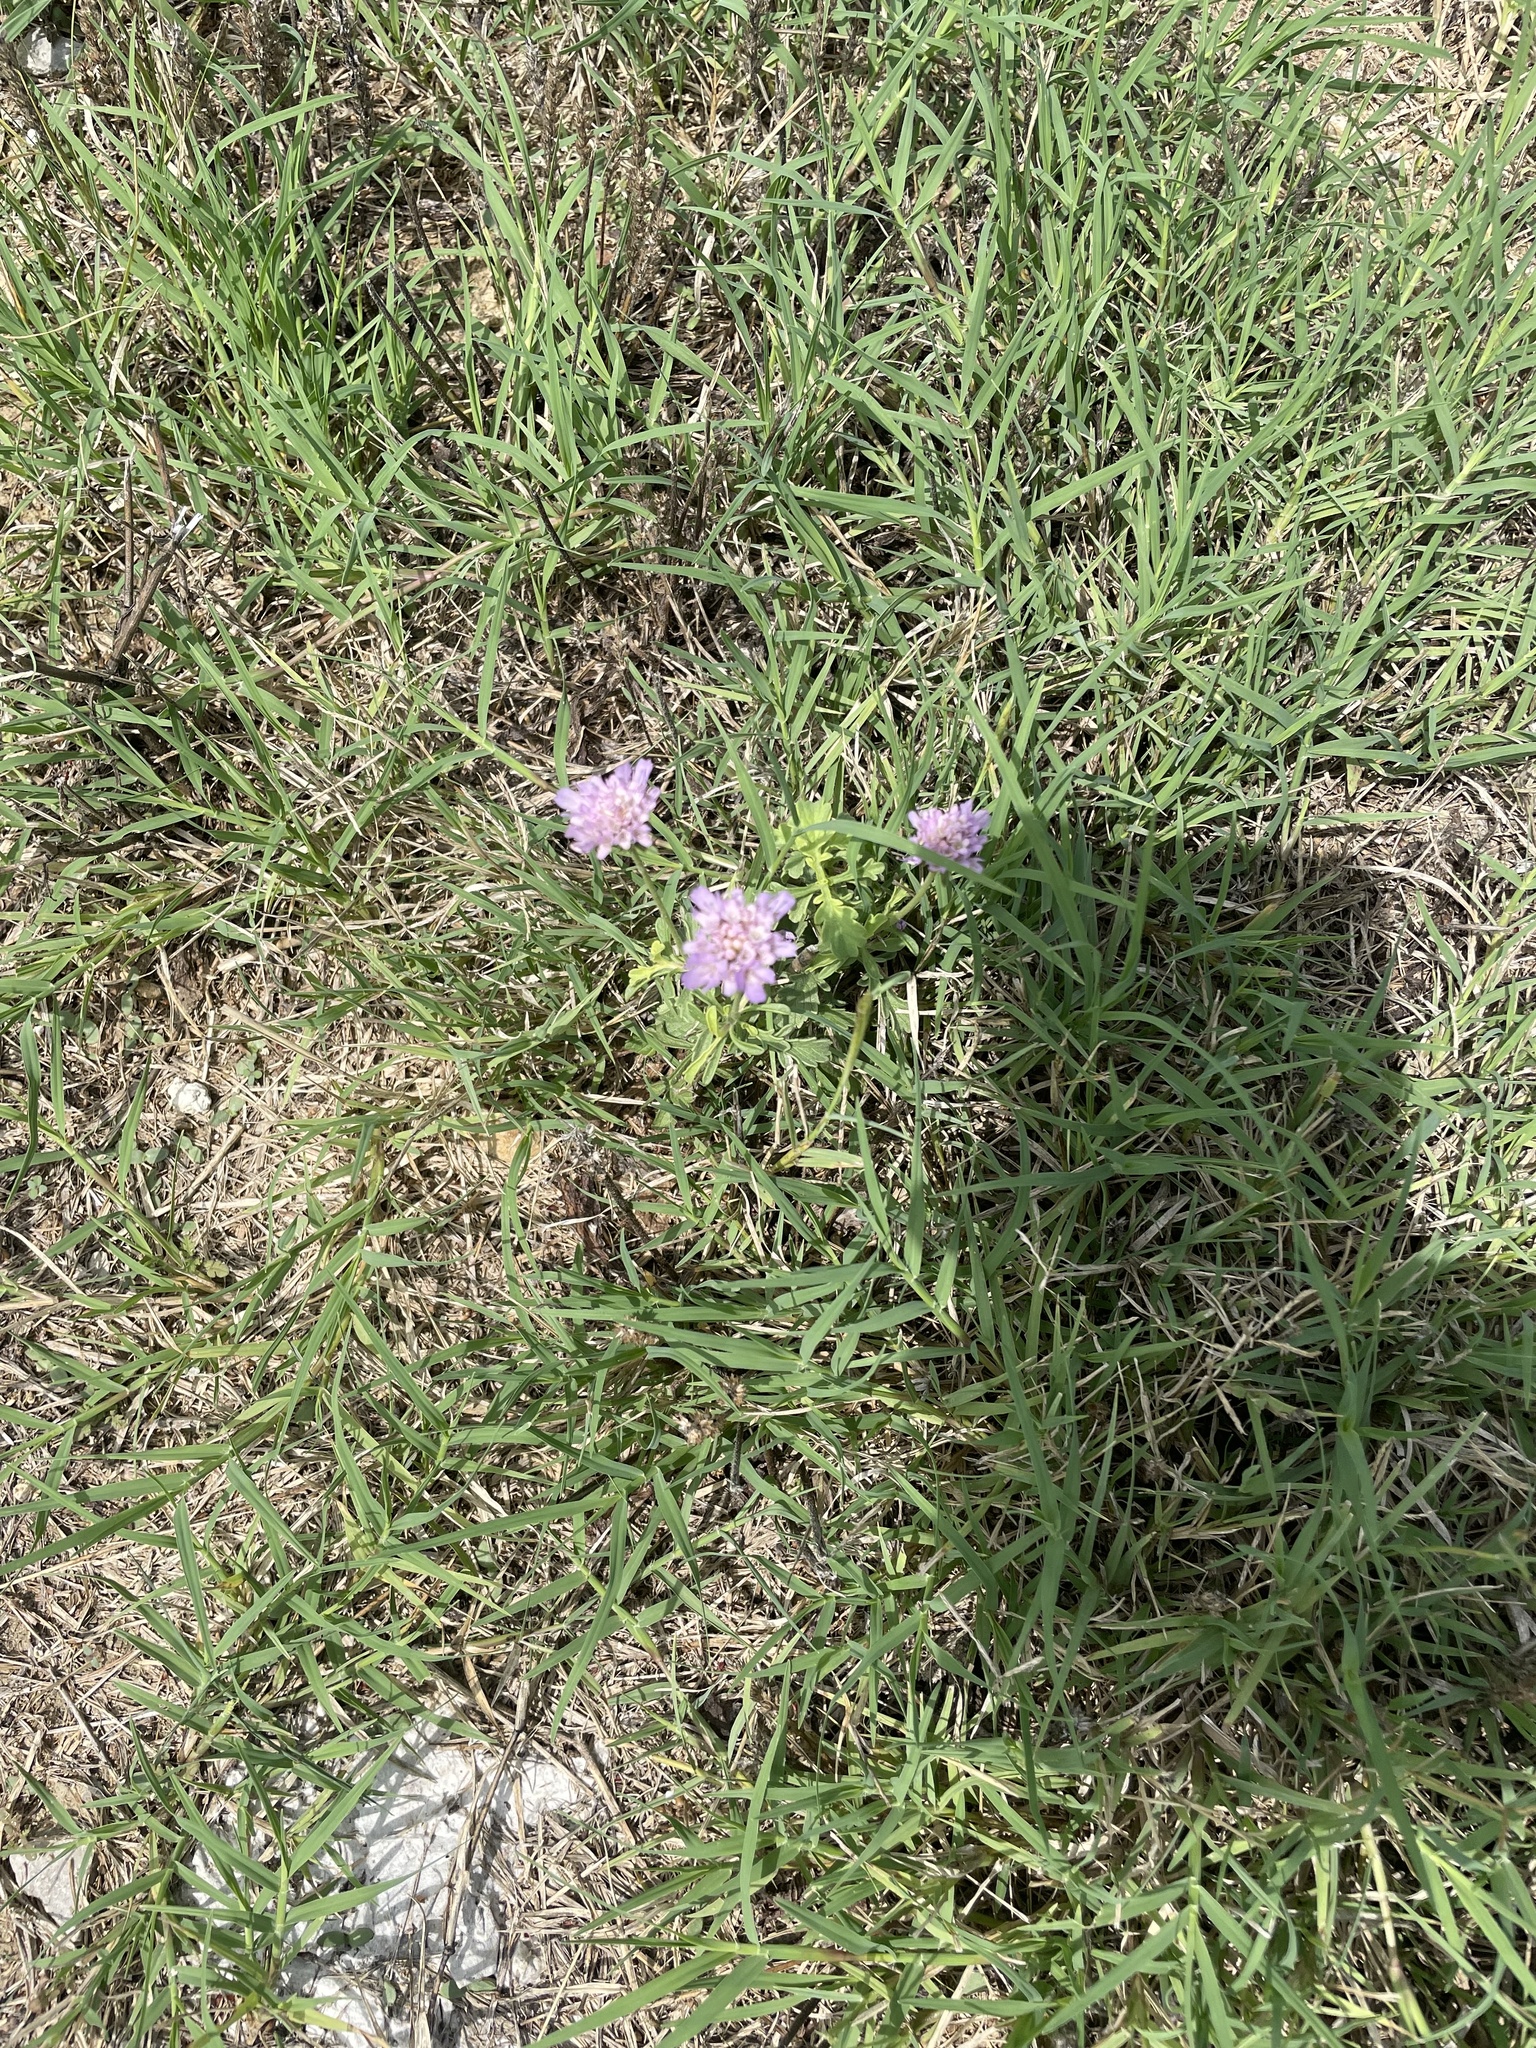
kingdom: Plantae
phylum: Tracheophyta
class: Magnoliopsida
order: Dipsacales
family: Caprifoliaceae
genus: Sixalix
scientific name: Sixalix atropurpurea
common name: Sweet scabious
